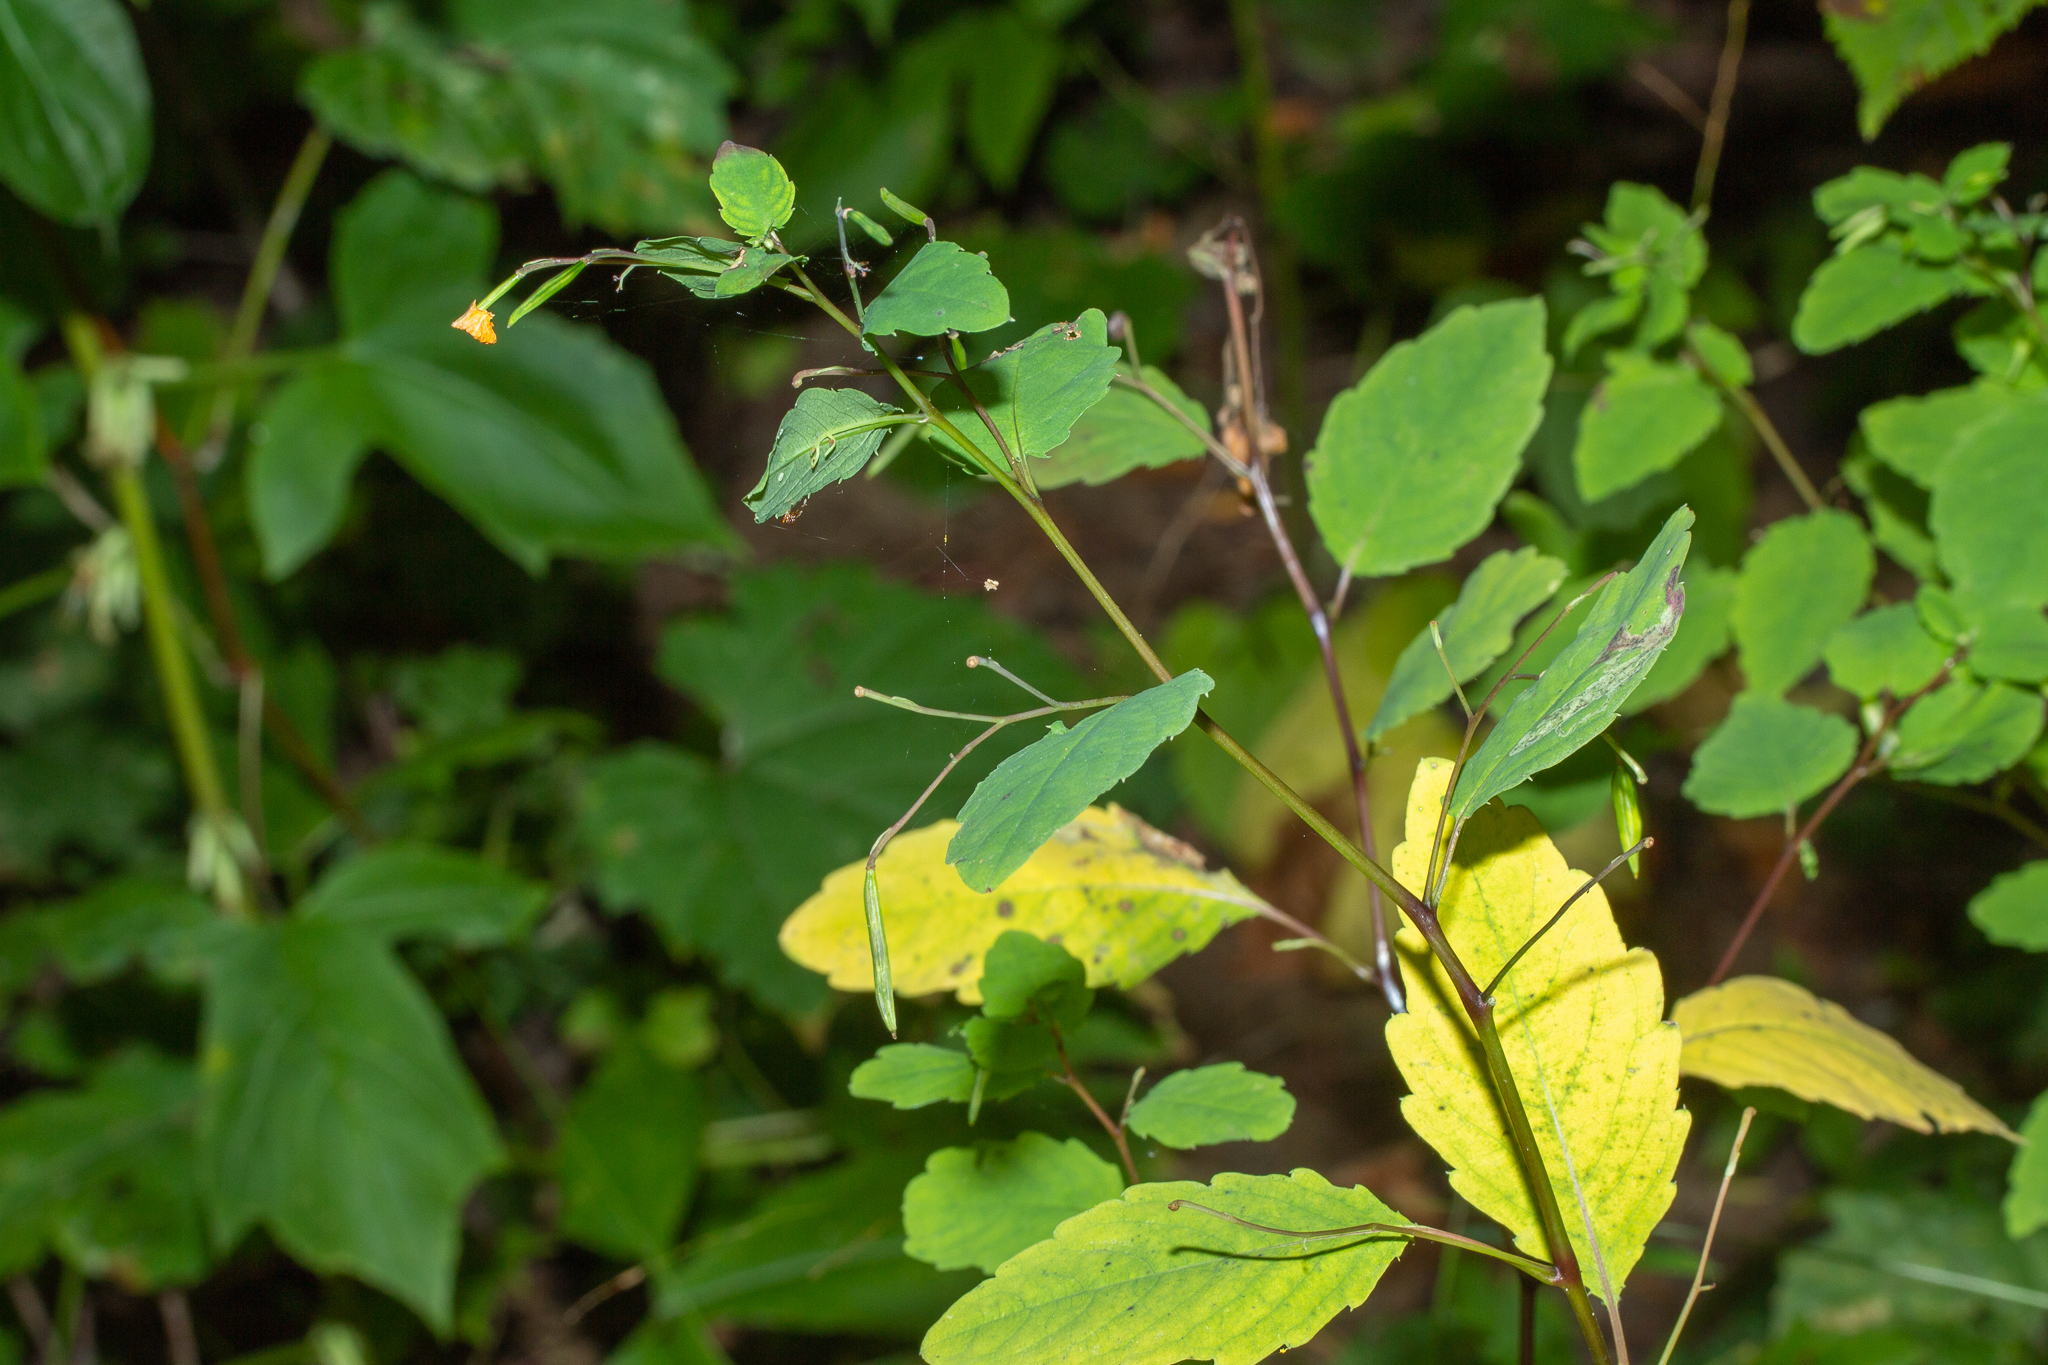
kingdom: Plantae
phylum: Tracheophyta
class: Magnoliopsida
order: Ericales
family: Balsaminaceae
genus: Impatiens
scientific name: Impatiens capensis
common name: Orange balsam
